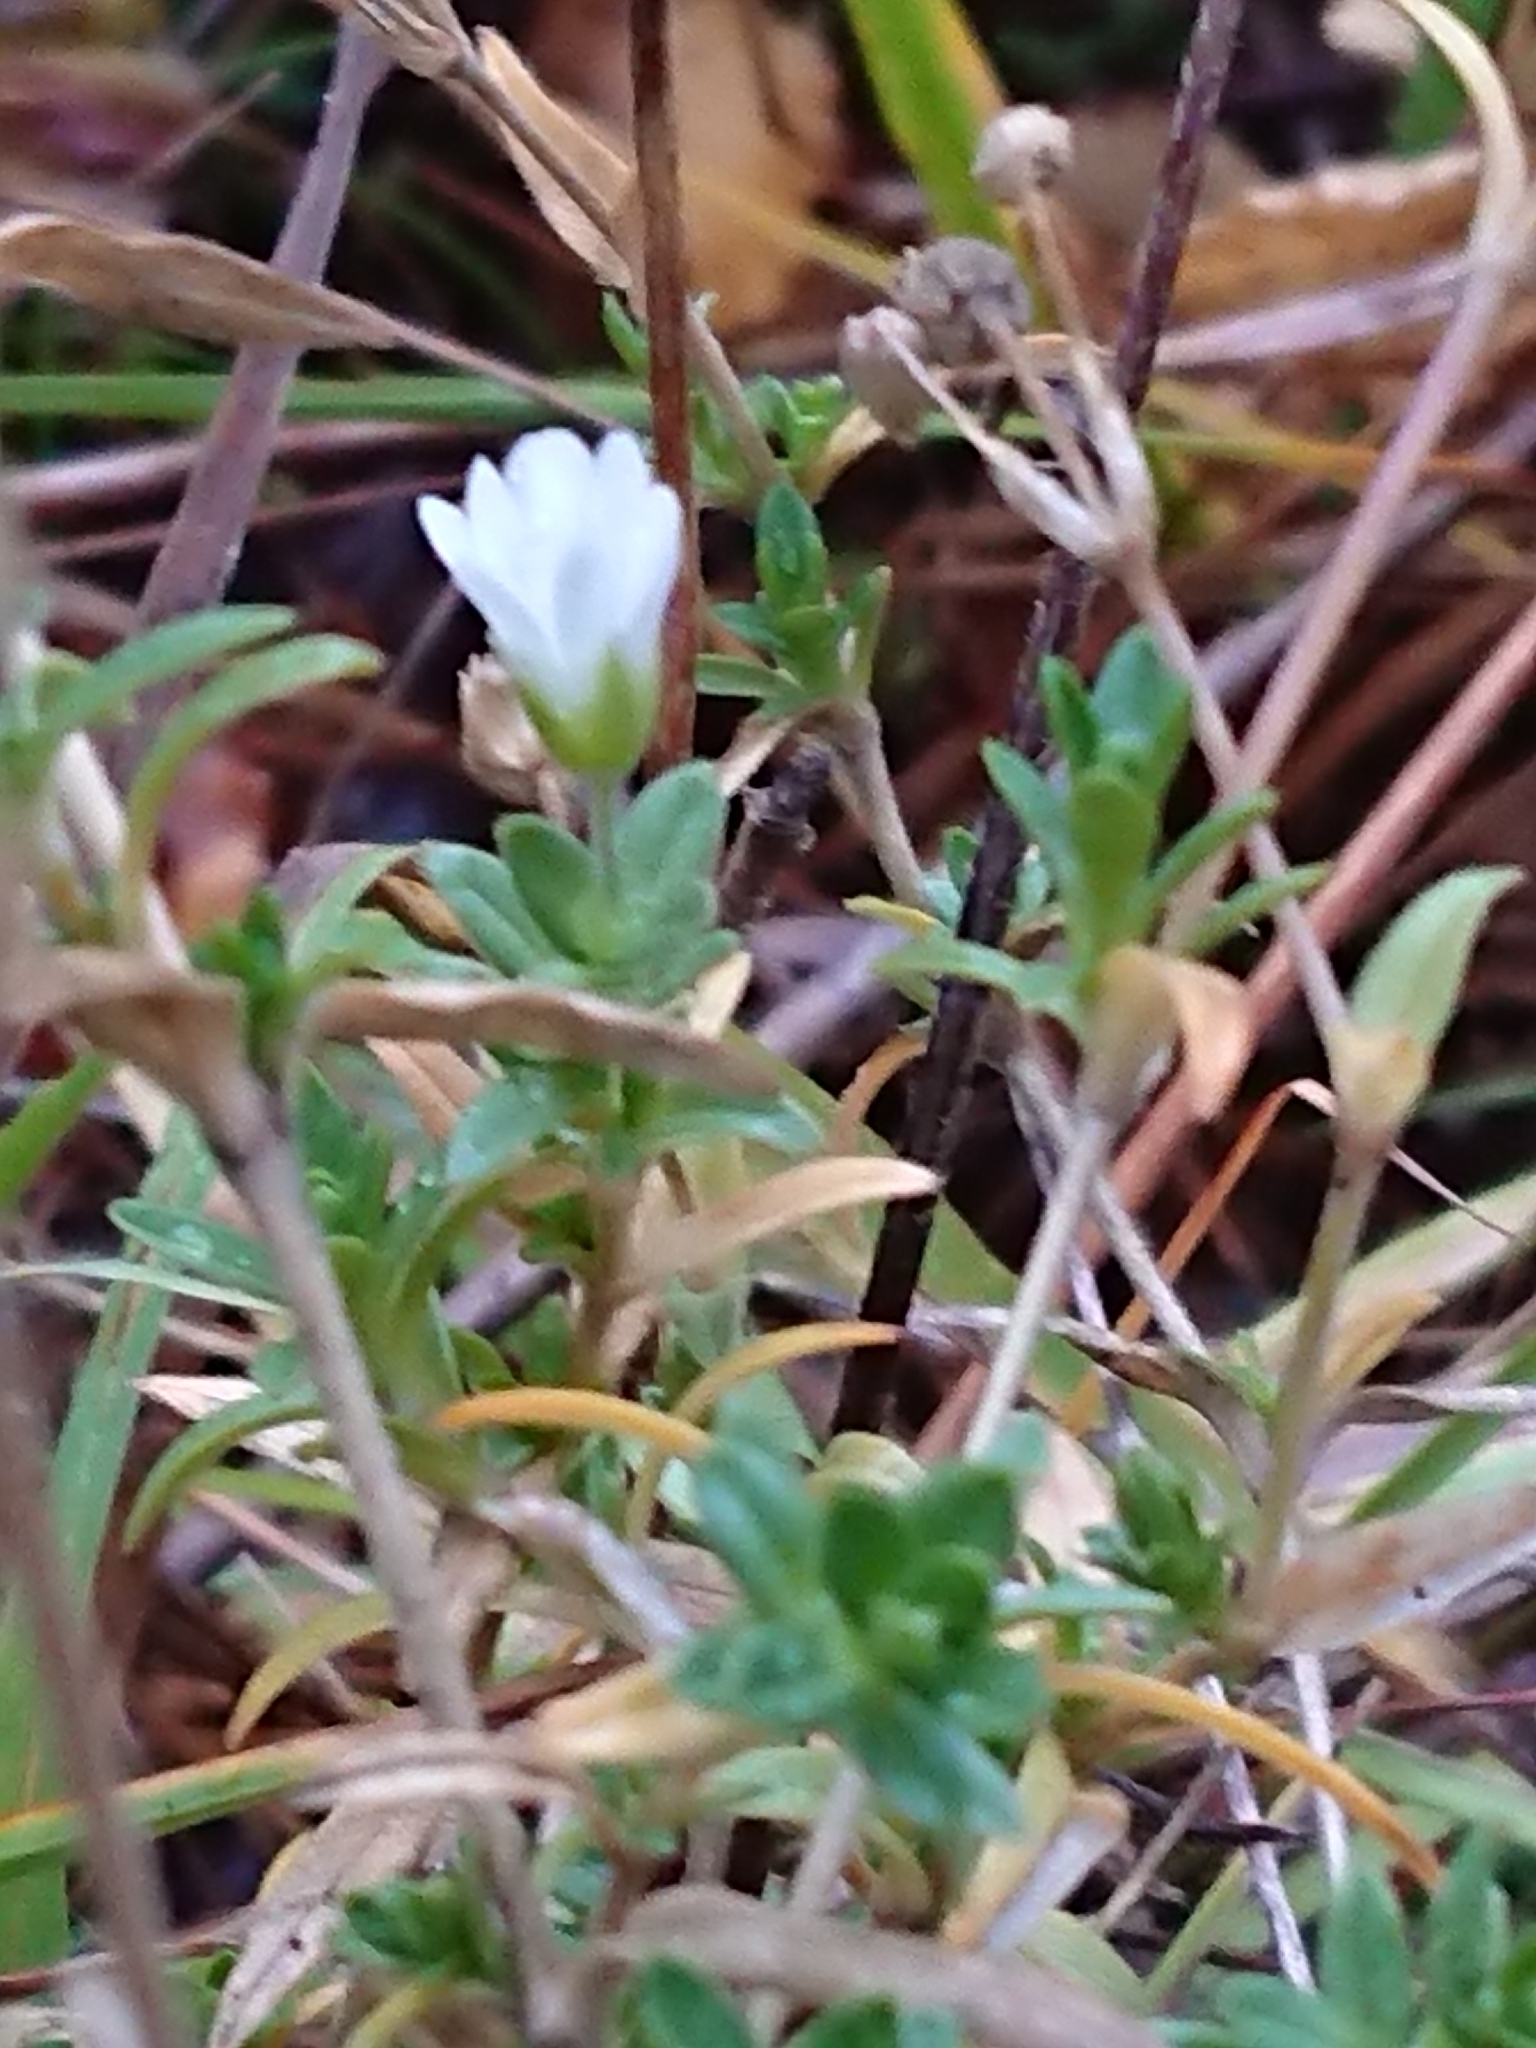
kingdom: Plantae
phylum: Tracheophyta
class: Magnoliopsida
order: Caryophyllales
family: Caryophyllaceae
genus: Cerastium
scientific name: Cerastium arvense
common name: Field mouse-ear
